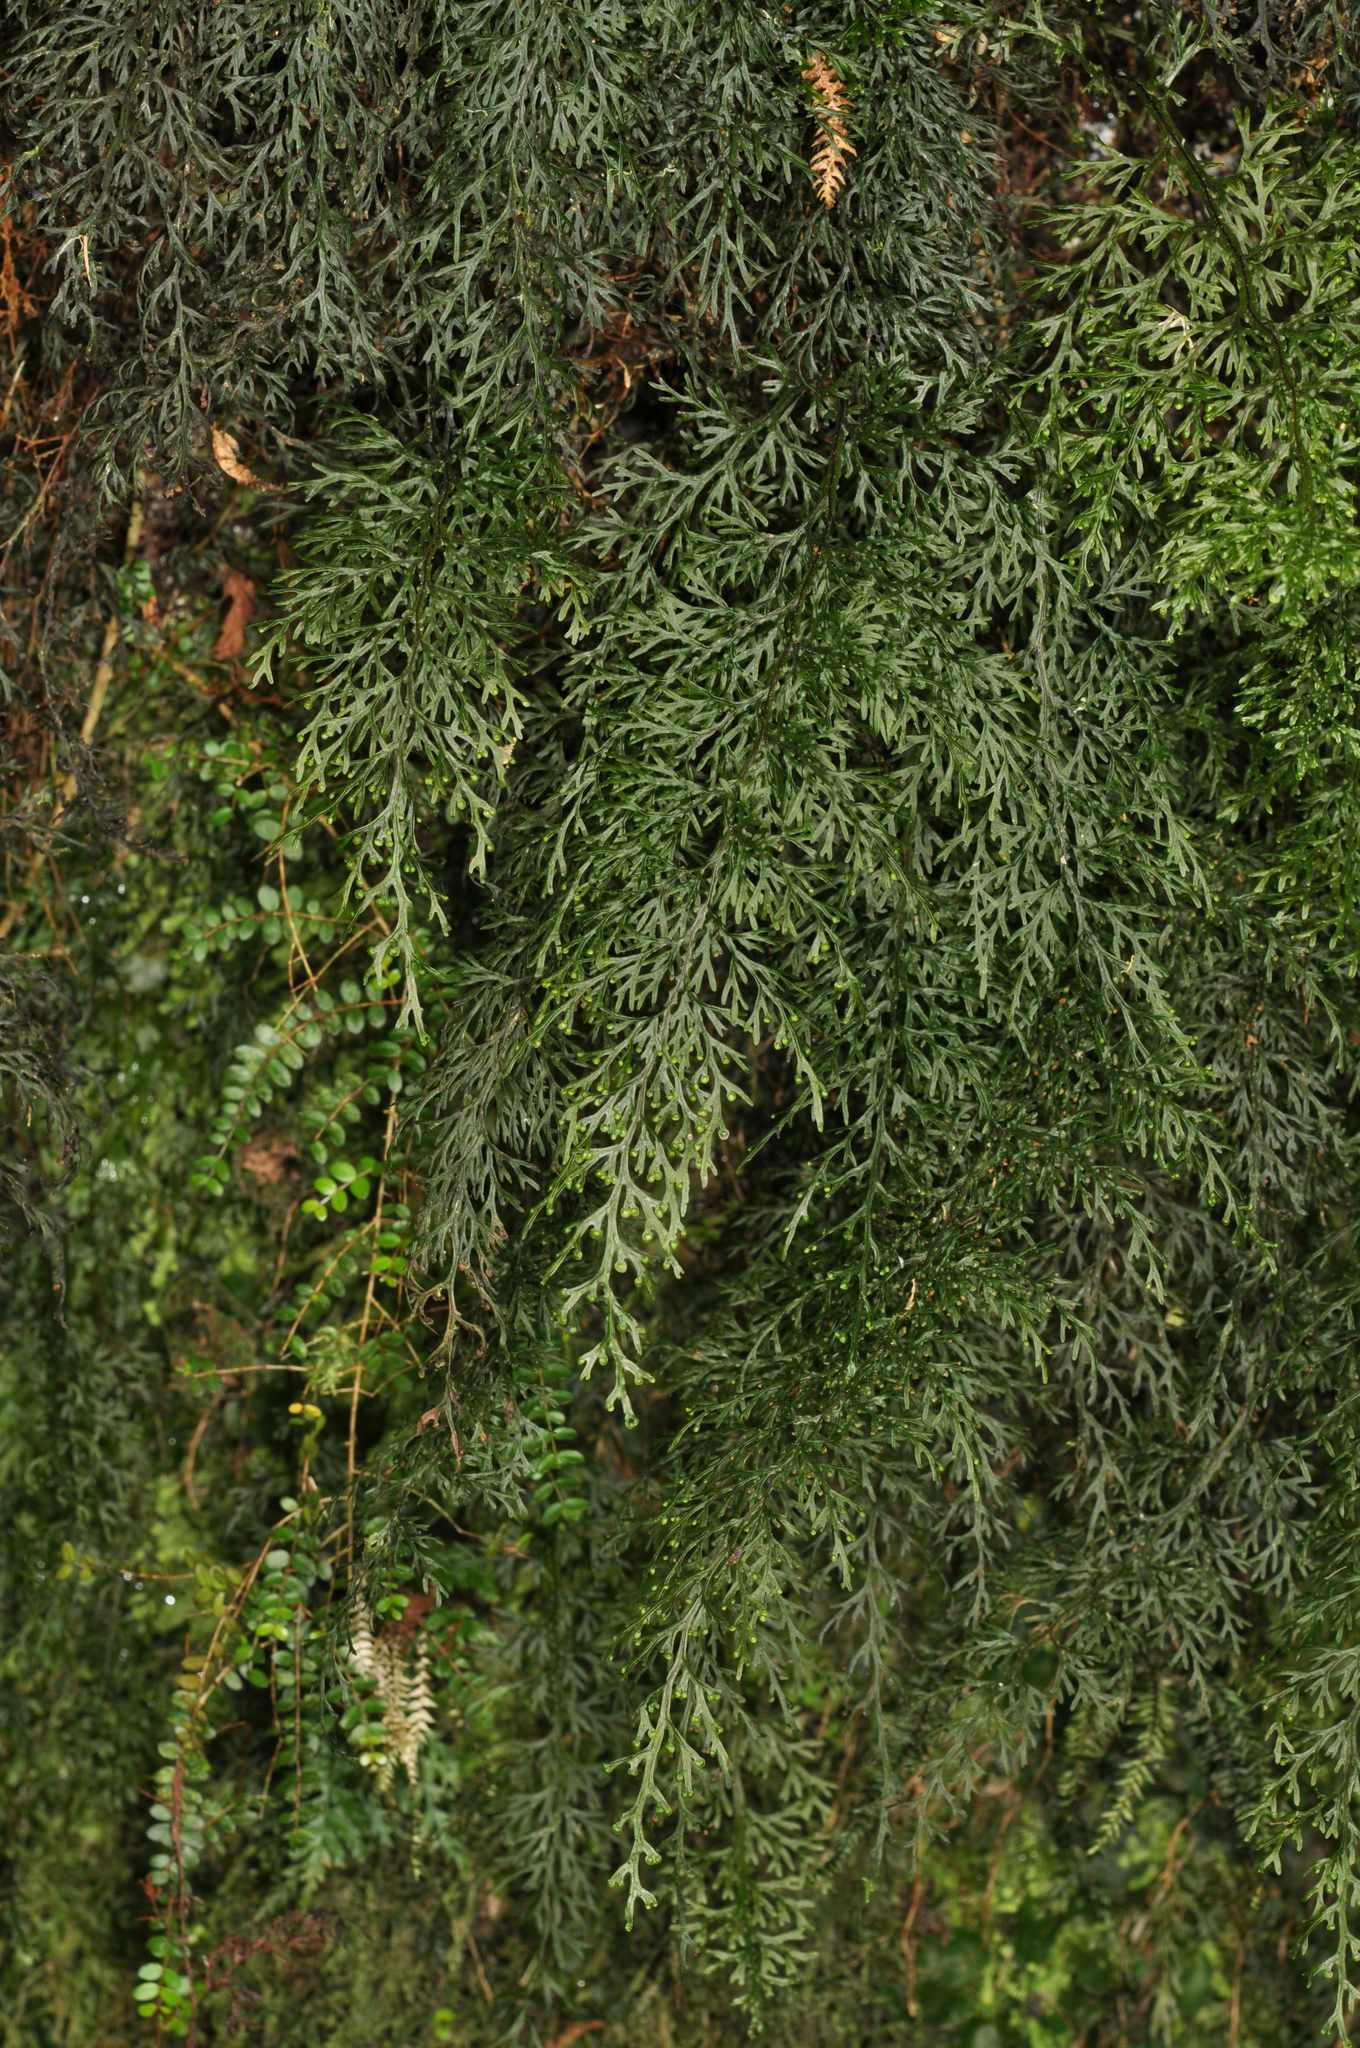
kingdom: Plantae
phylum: Tracheophyta
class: Polypodiopsida
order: Hymenophyllales
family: Hymenophyllaceae
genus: Hymenophyllum
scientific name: Hymenophyllum australe
